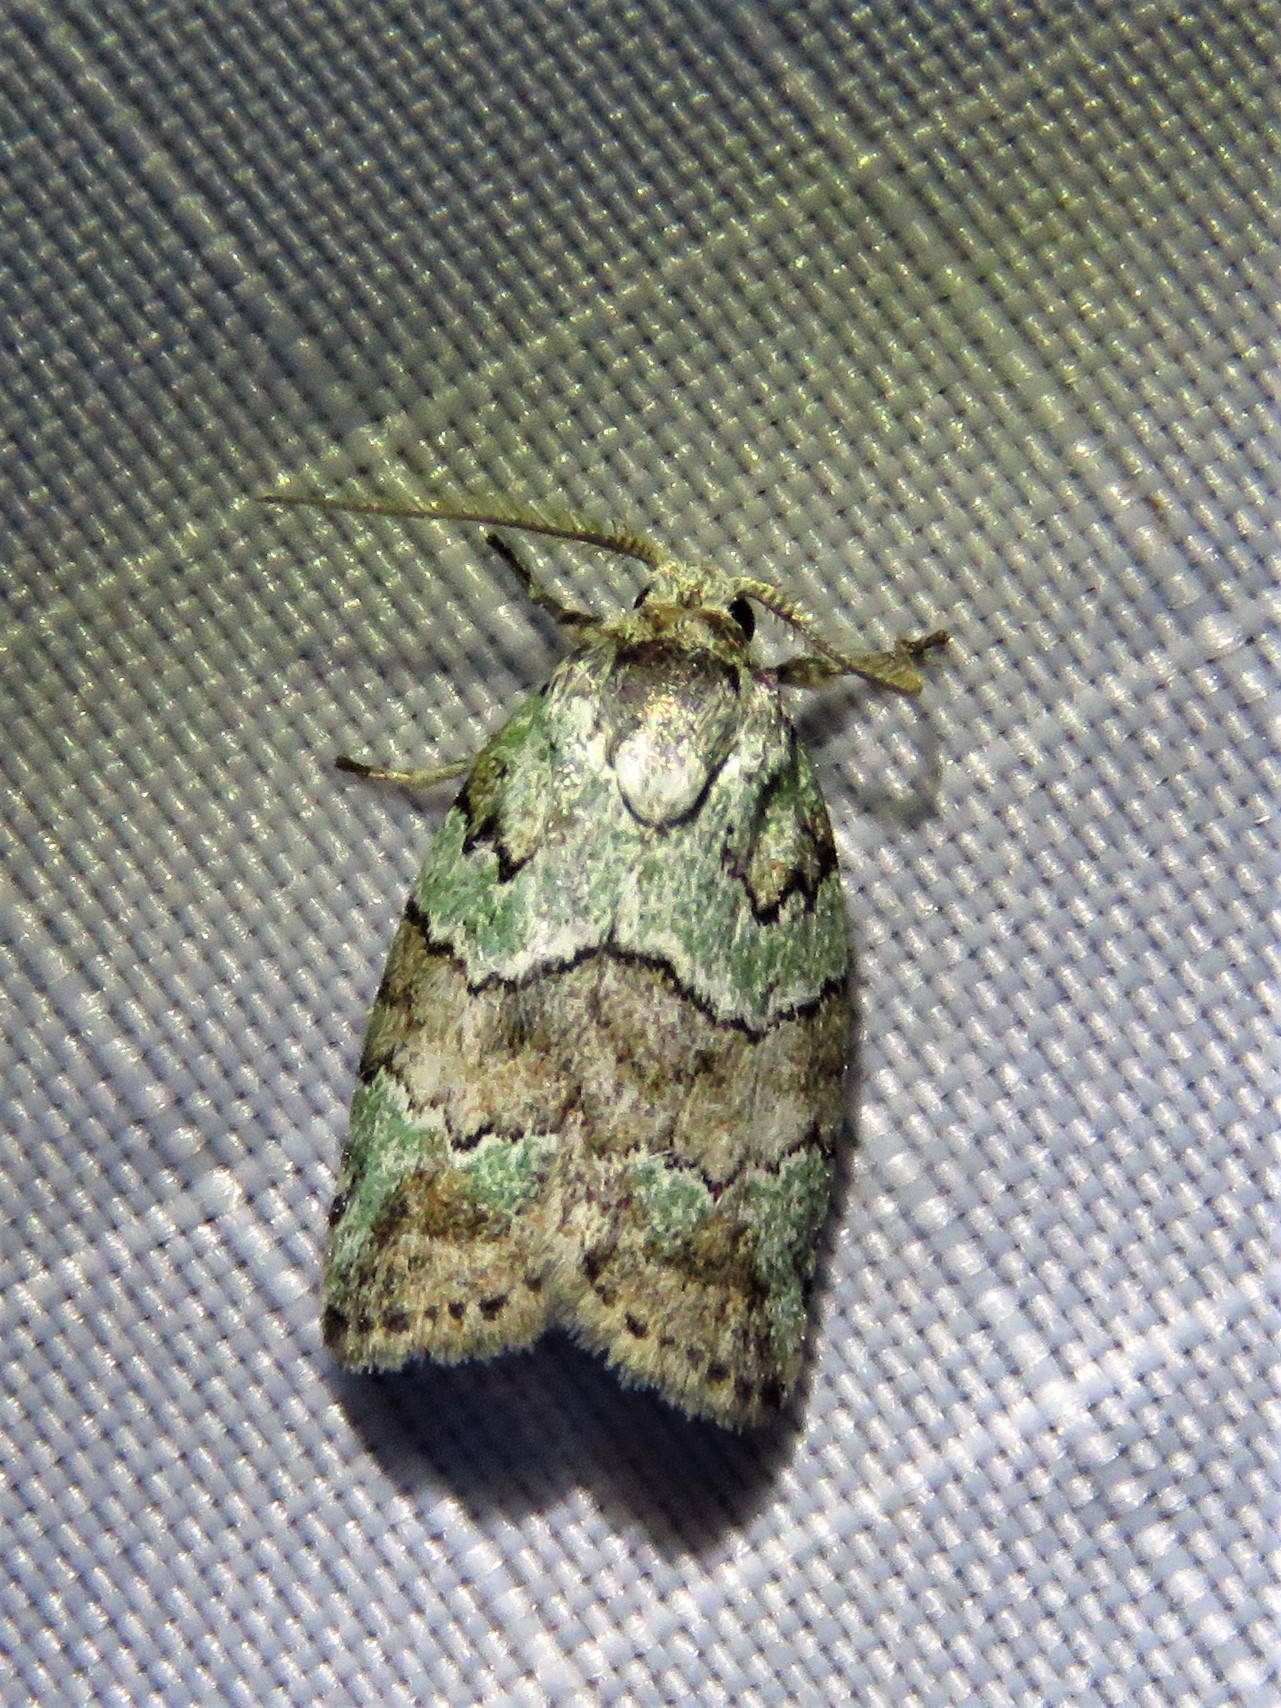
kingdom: Animalia
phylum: Arthropoda
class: Insecta
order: Lepidoptera
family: Nolidae
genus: Afrida
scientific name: Afrida ydatodes
